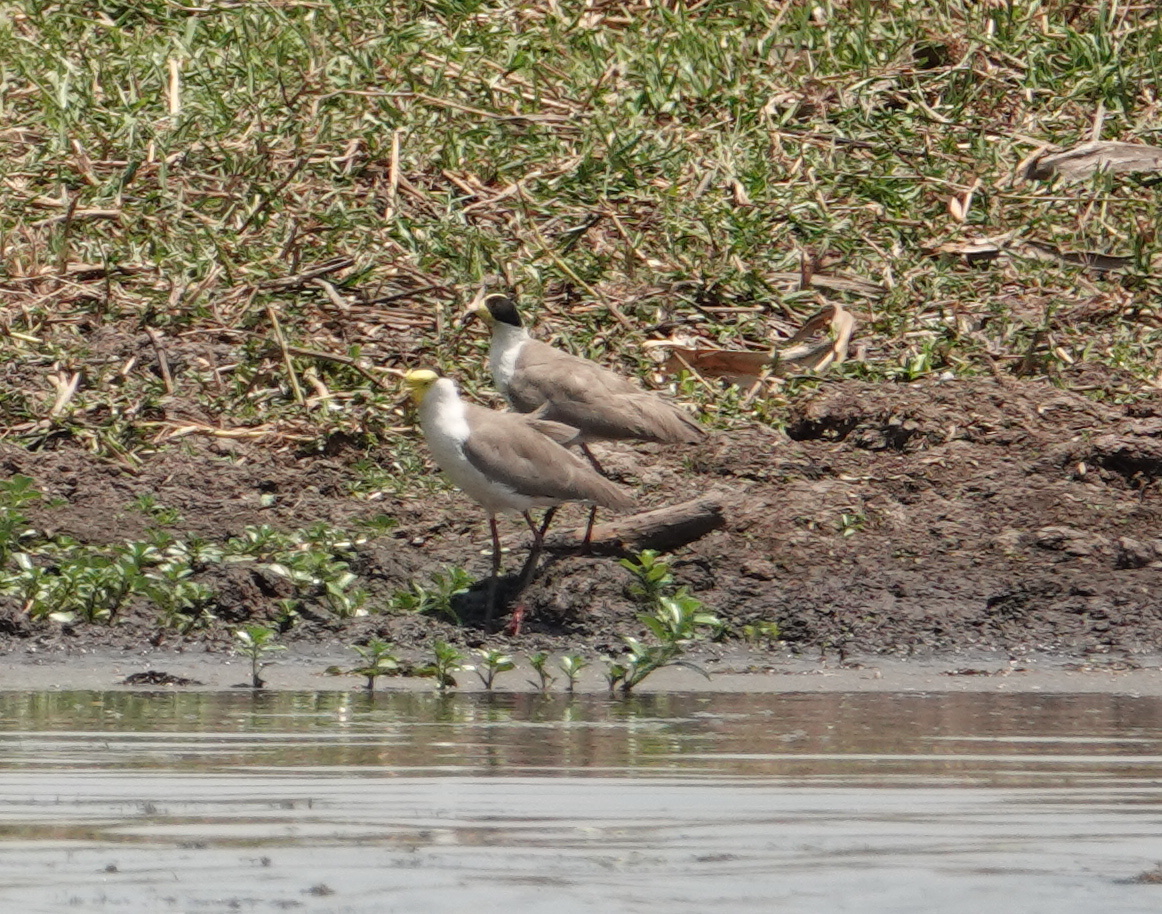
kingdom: Animalia
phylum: Chordata
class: Aves
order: Charadriiformes
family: Charadriidae
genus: Vanellus
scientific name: Vanellus miles
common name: Masked lapwing
